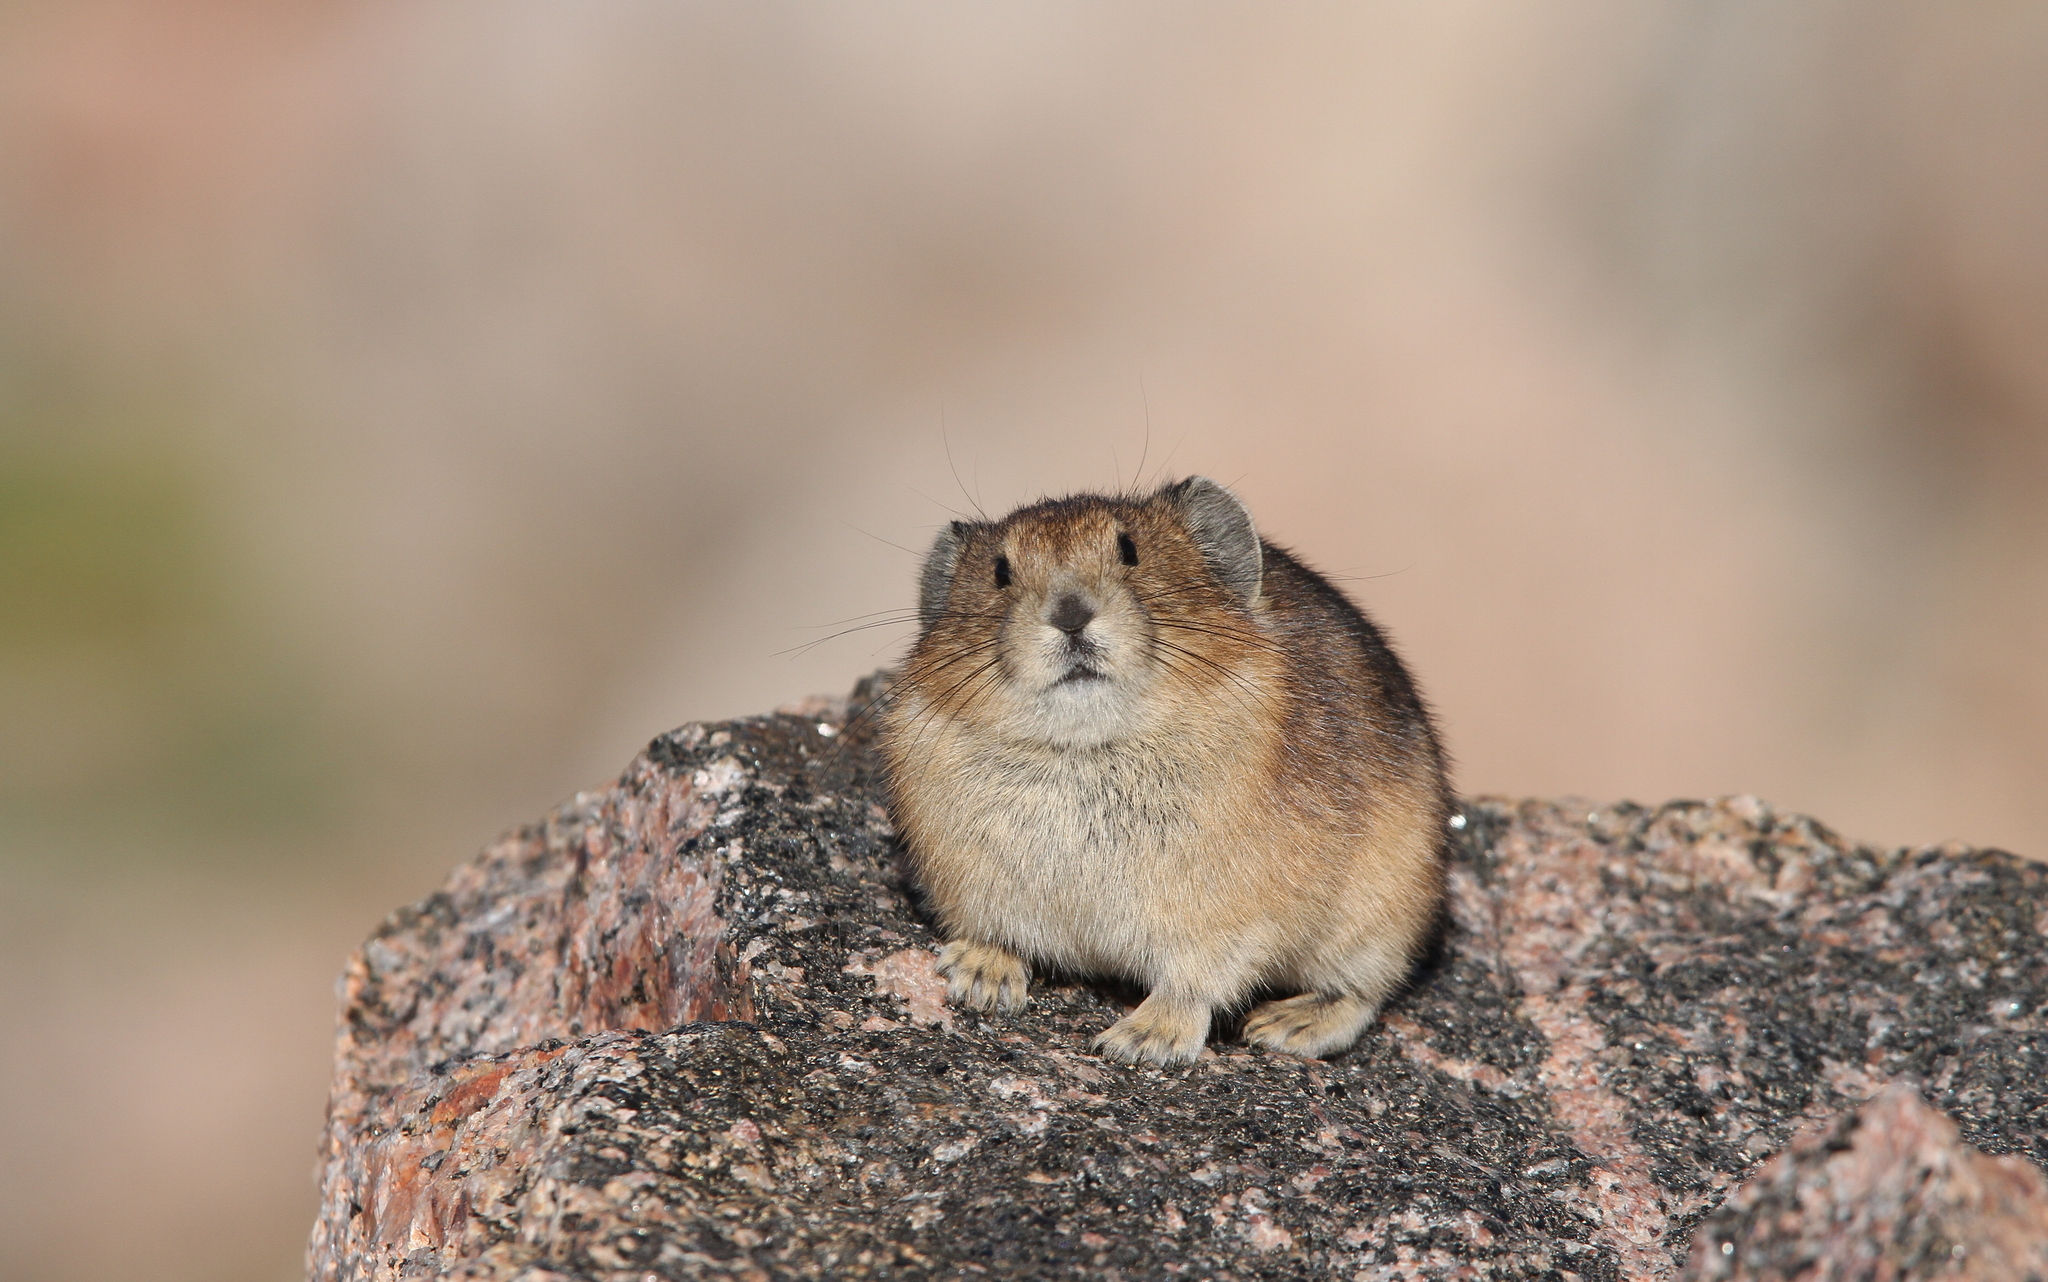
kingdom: Animalia
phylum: Chordata
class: Mammalia
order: Lagomorpha
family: Ochotonidae
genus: Ochotona
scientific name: Ochotona princeps
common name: American pika
